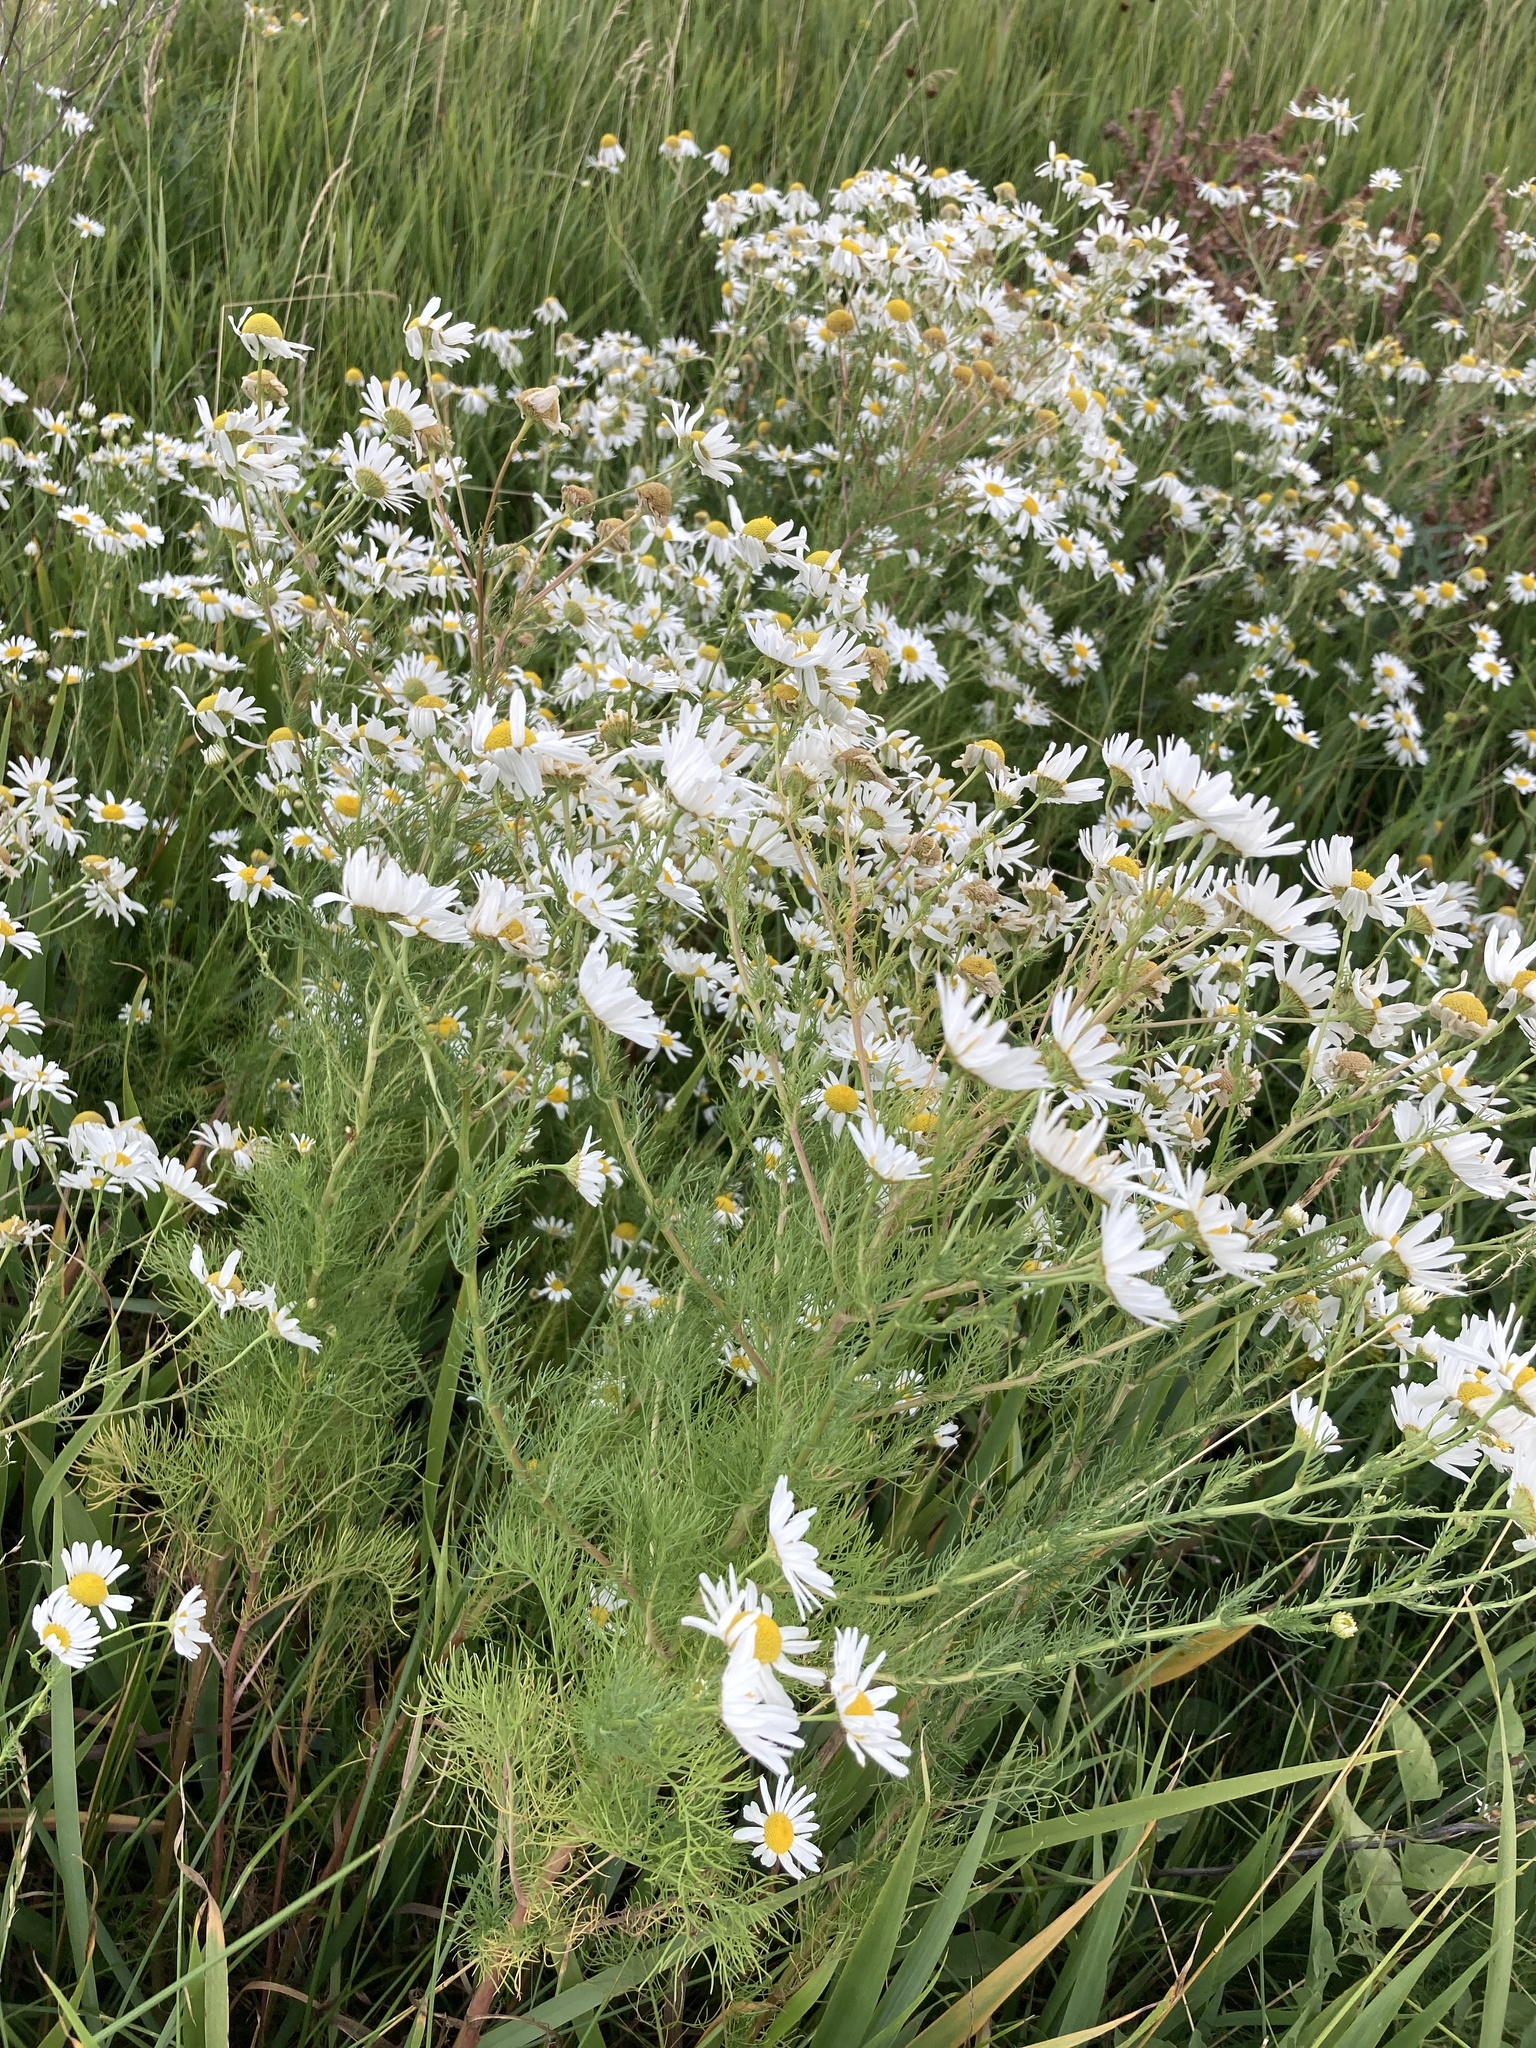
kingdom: Plantae
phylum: Tracheophyta
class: Magnoliopsida
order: Asterales
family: Asteraceae
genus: Tripleurospermum
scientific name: Tripleurospermum inodorum
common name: Scentless mayweed
